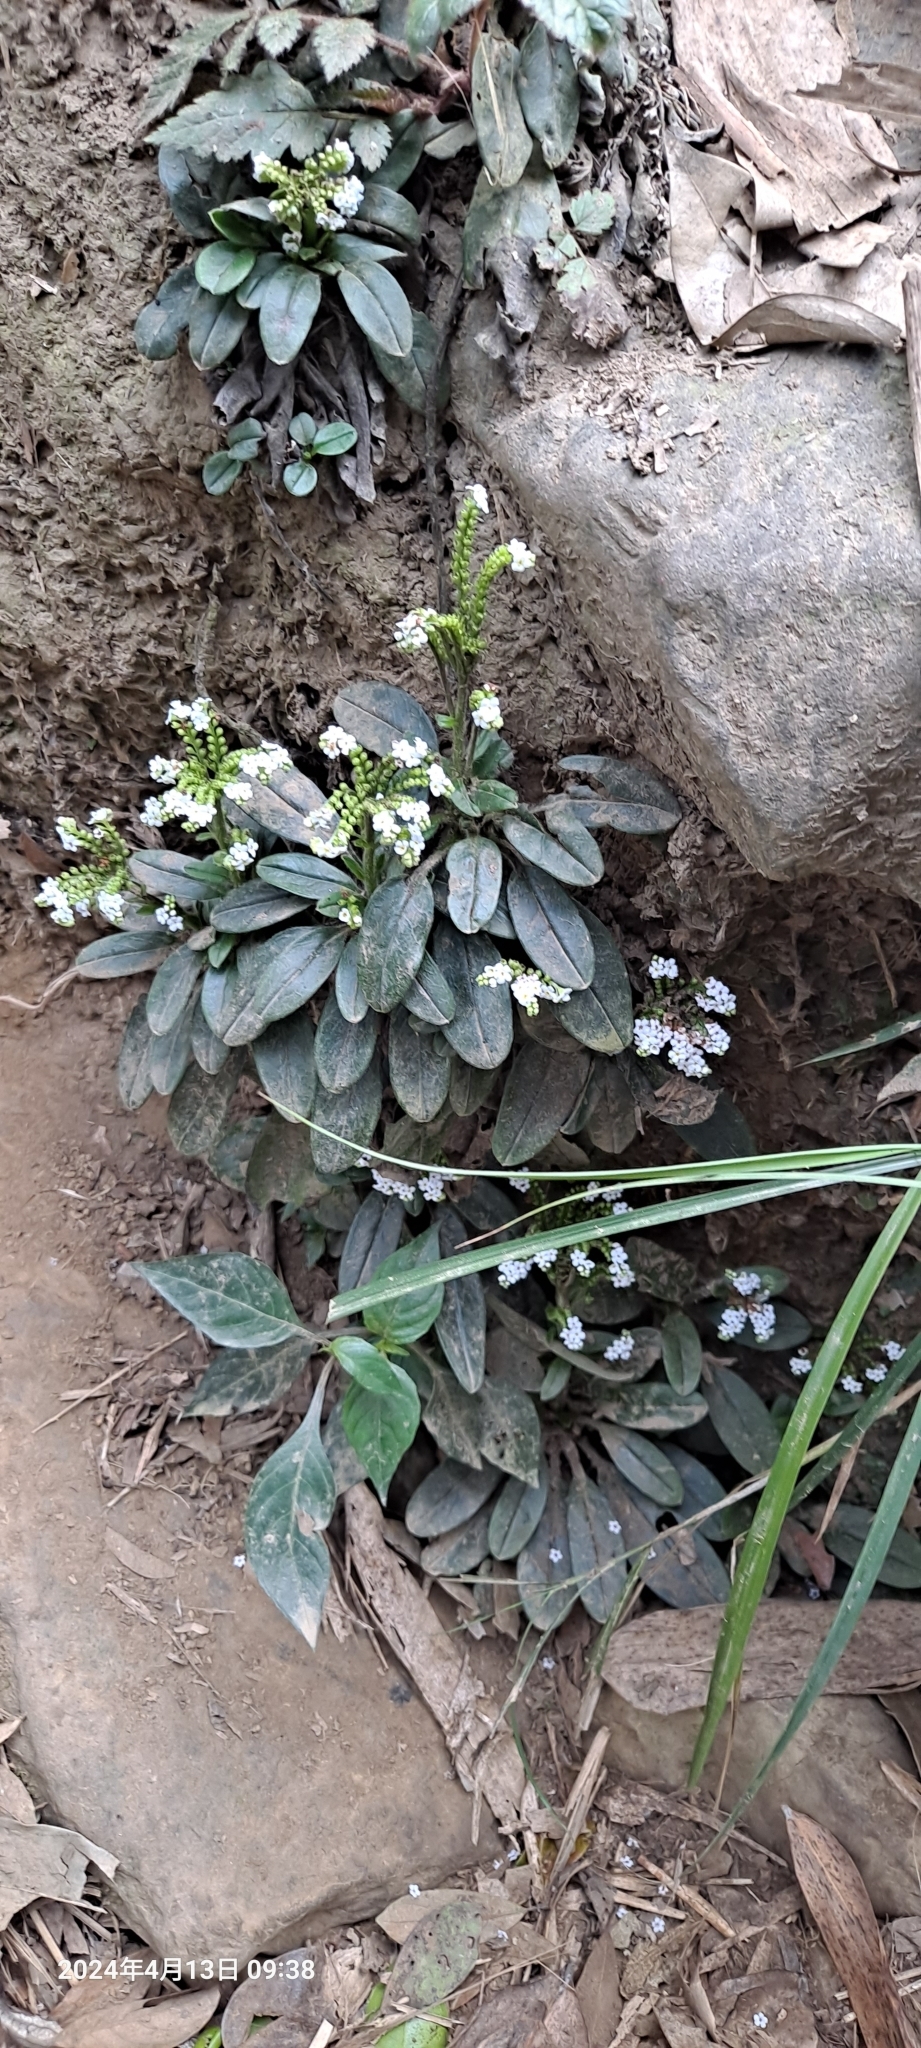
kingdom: Plantae
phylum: Tracheophyta
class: Magnoliopsida
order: Boraginales
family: Boraginaceae
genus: Trigonotis
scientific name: Trigonotis formosana
